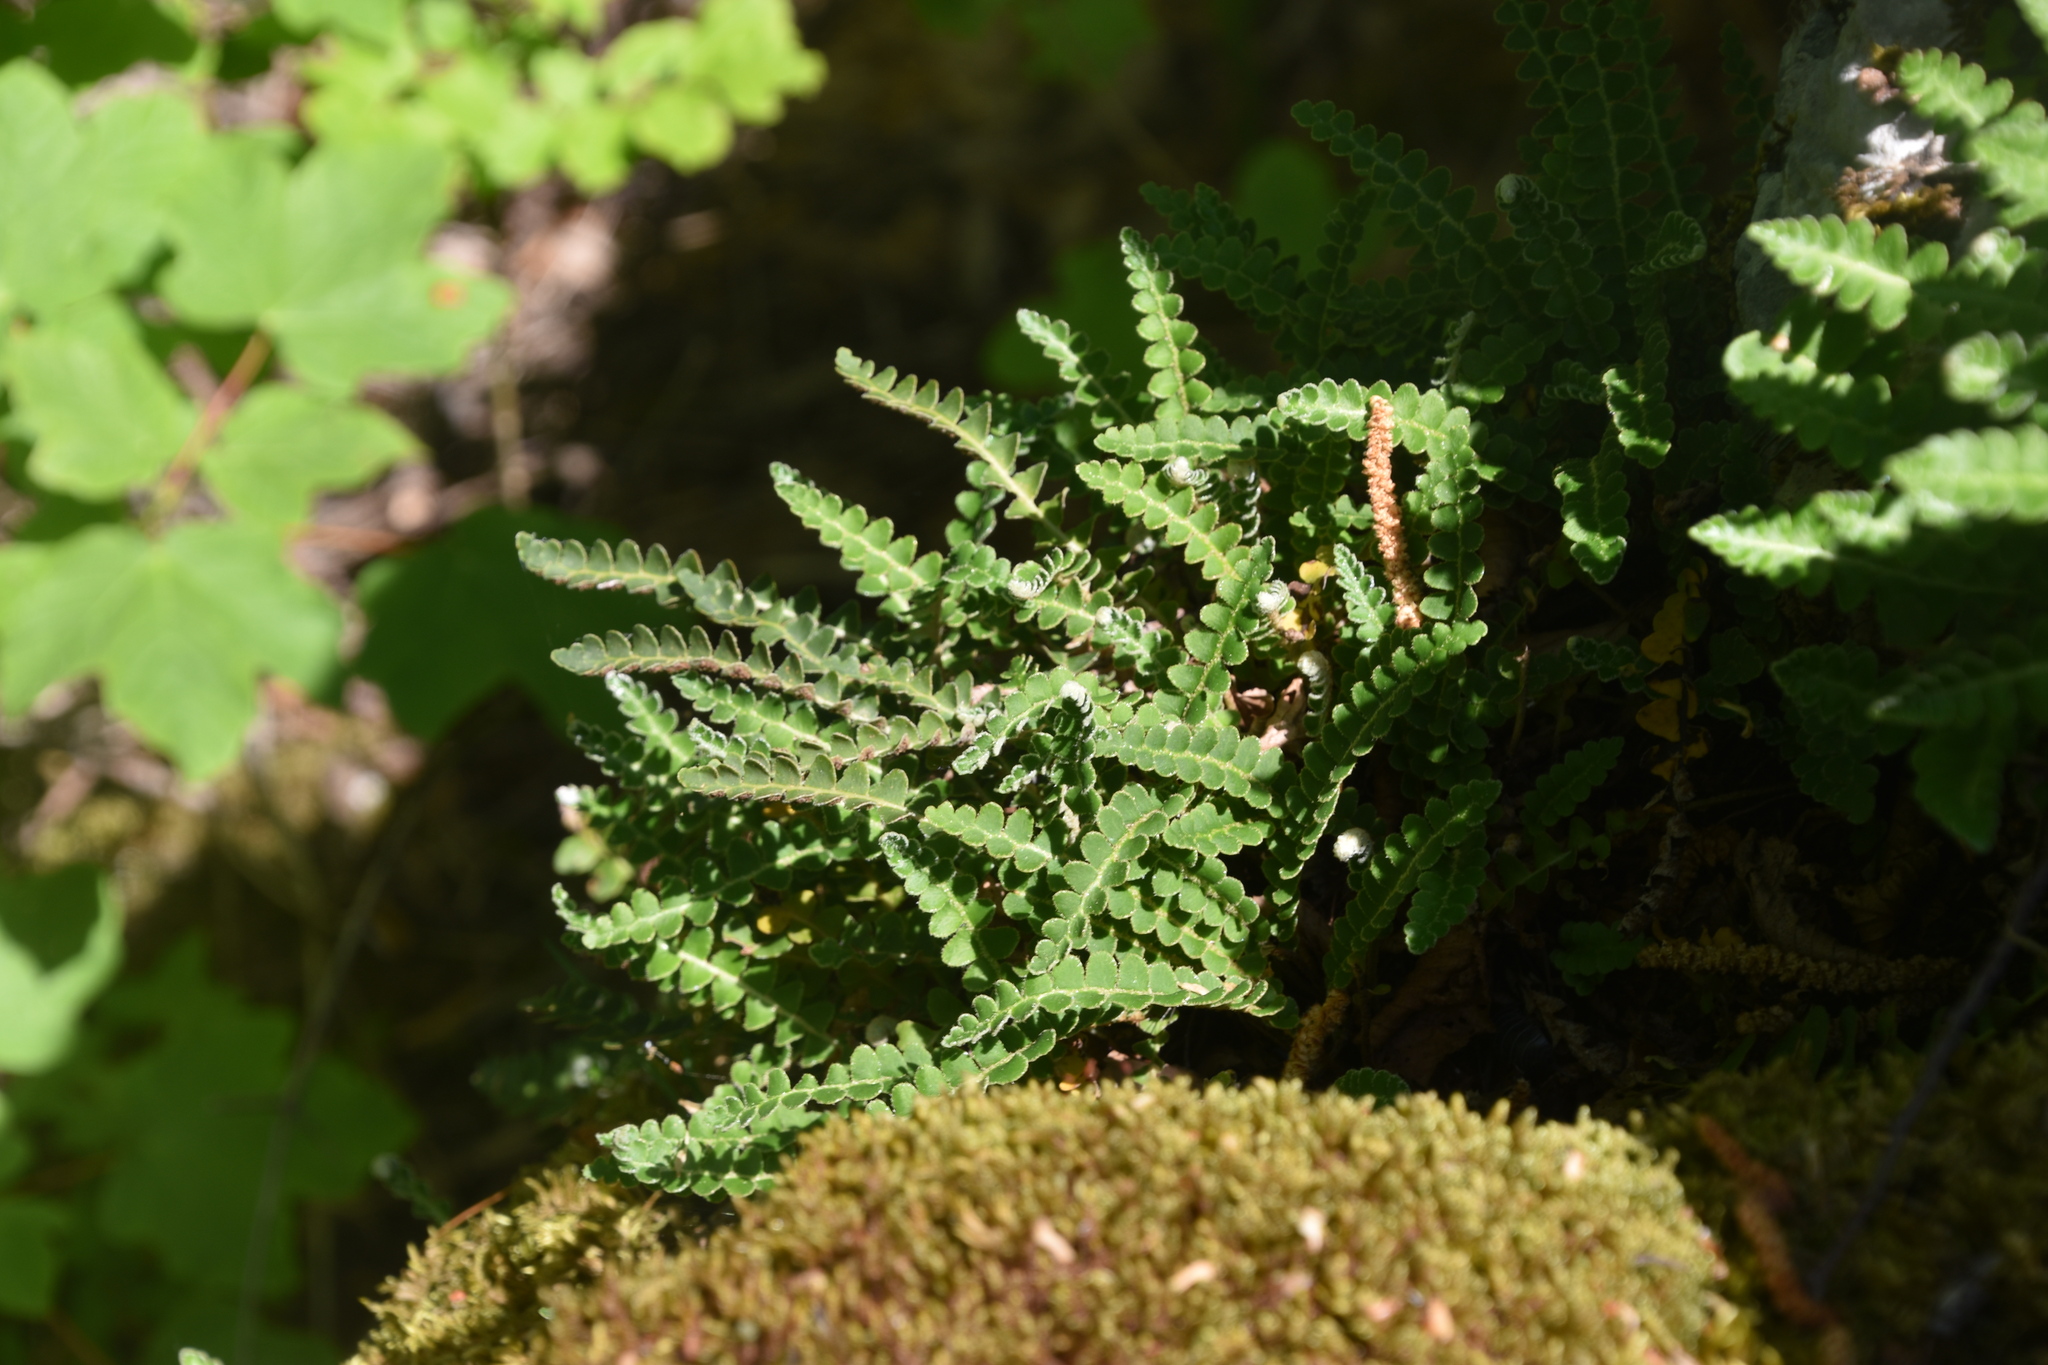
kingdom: Plantae
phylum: Tracheophyta
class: Polypodiopsida
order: Polypodiales
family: Aspleniaceae
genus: Asplenium
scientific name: Asplenium ceterach
